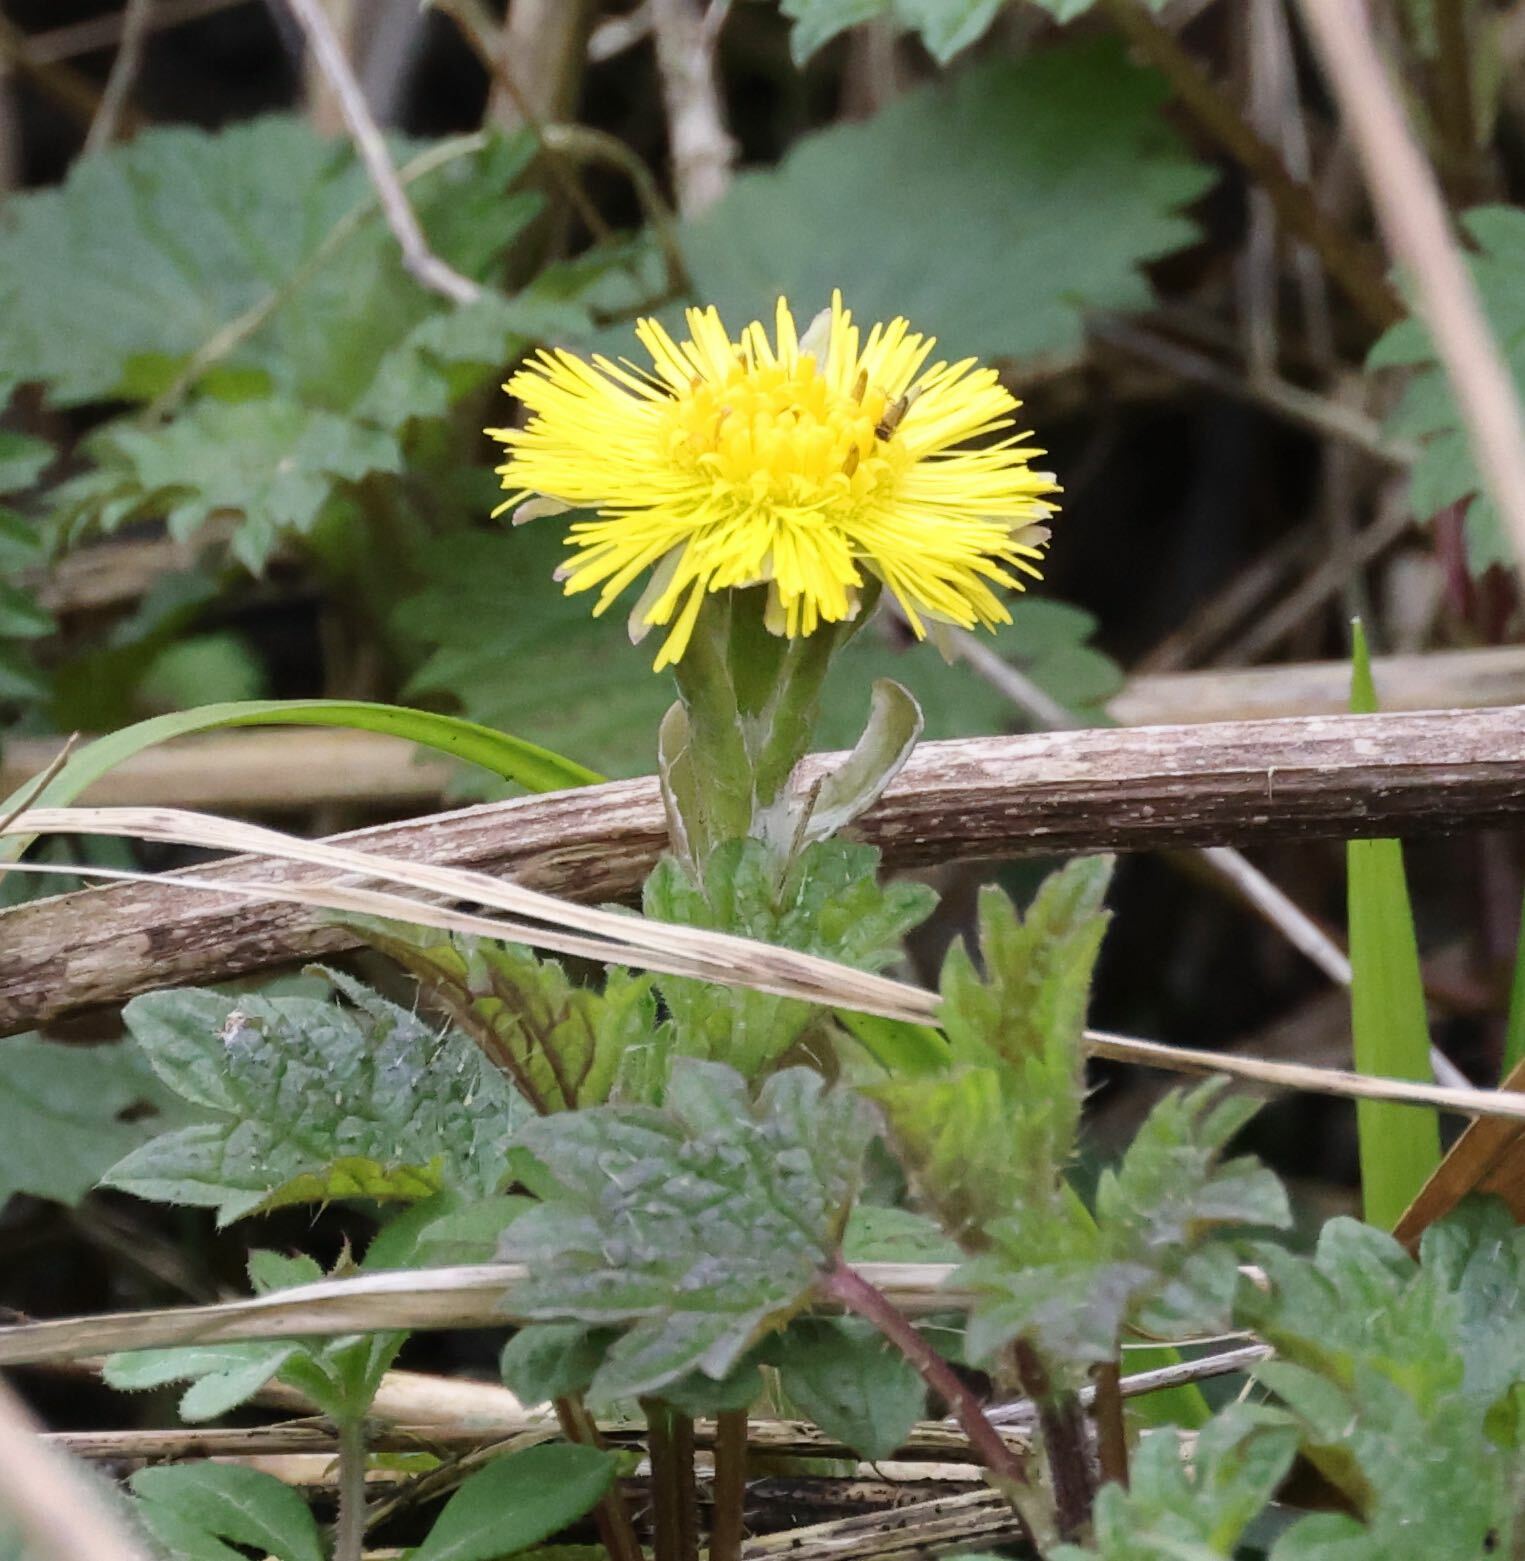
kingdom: Plantae
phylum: Tracheophyta
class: Magnoliopsida
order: Asterales
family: Asteraceae
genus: Tussilago
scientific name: Tussilago farfara
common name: Coltsfoot
